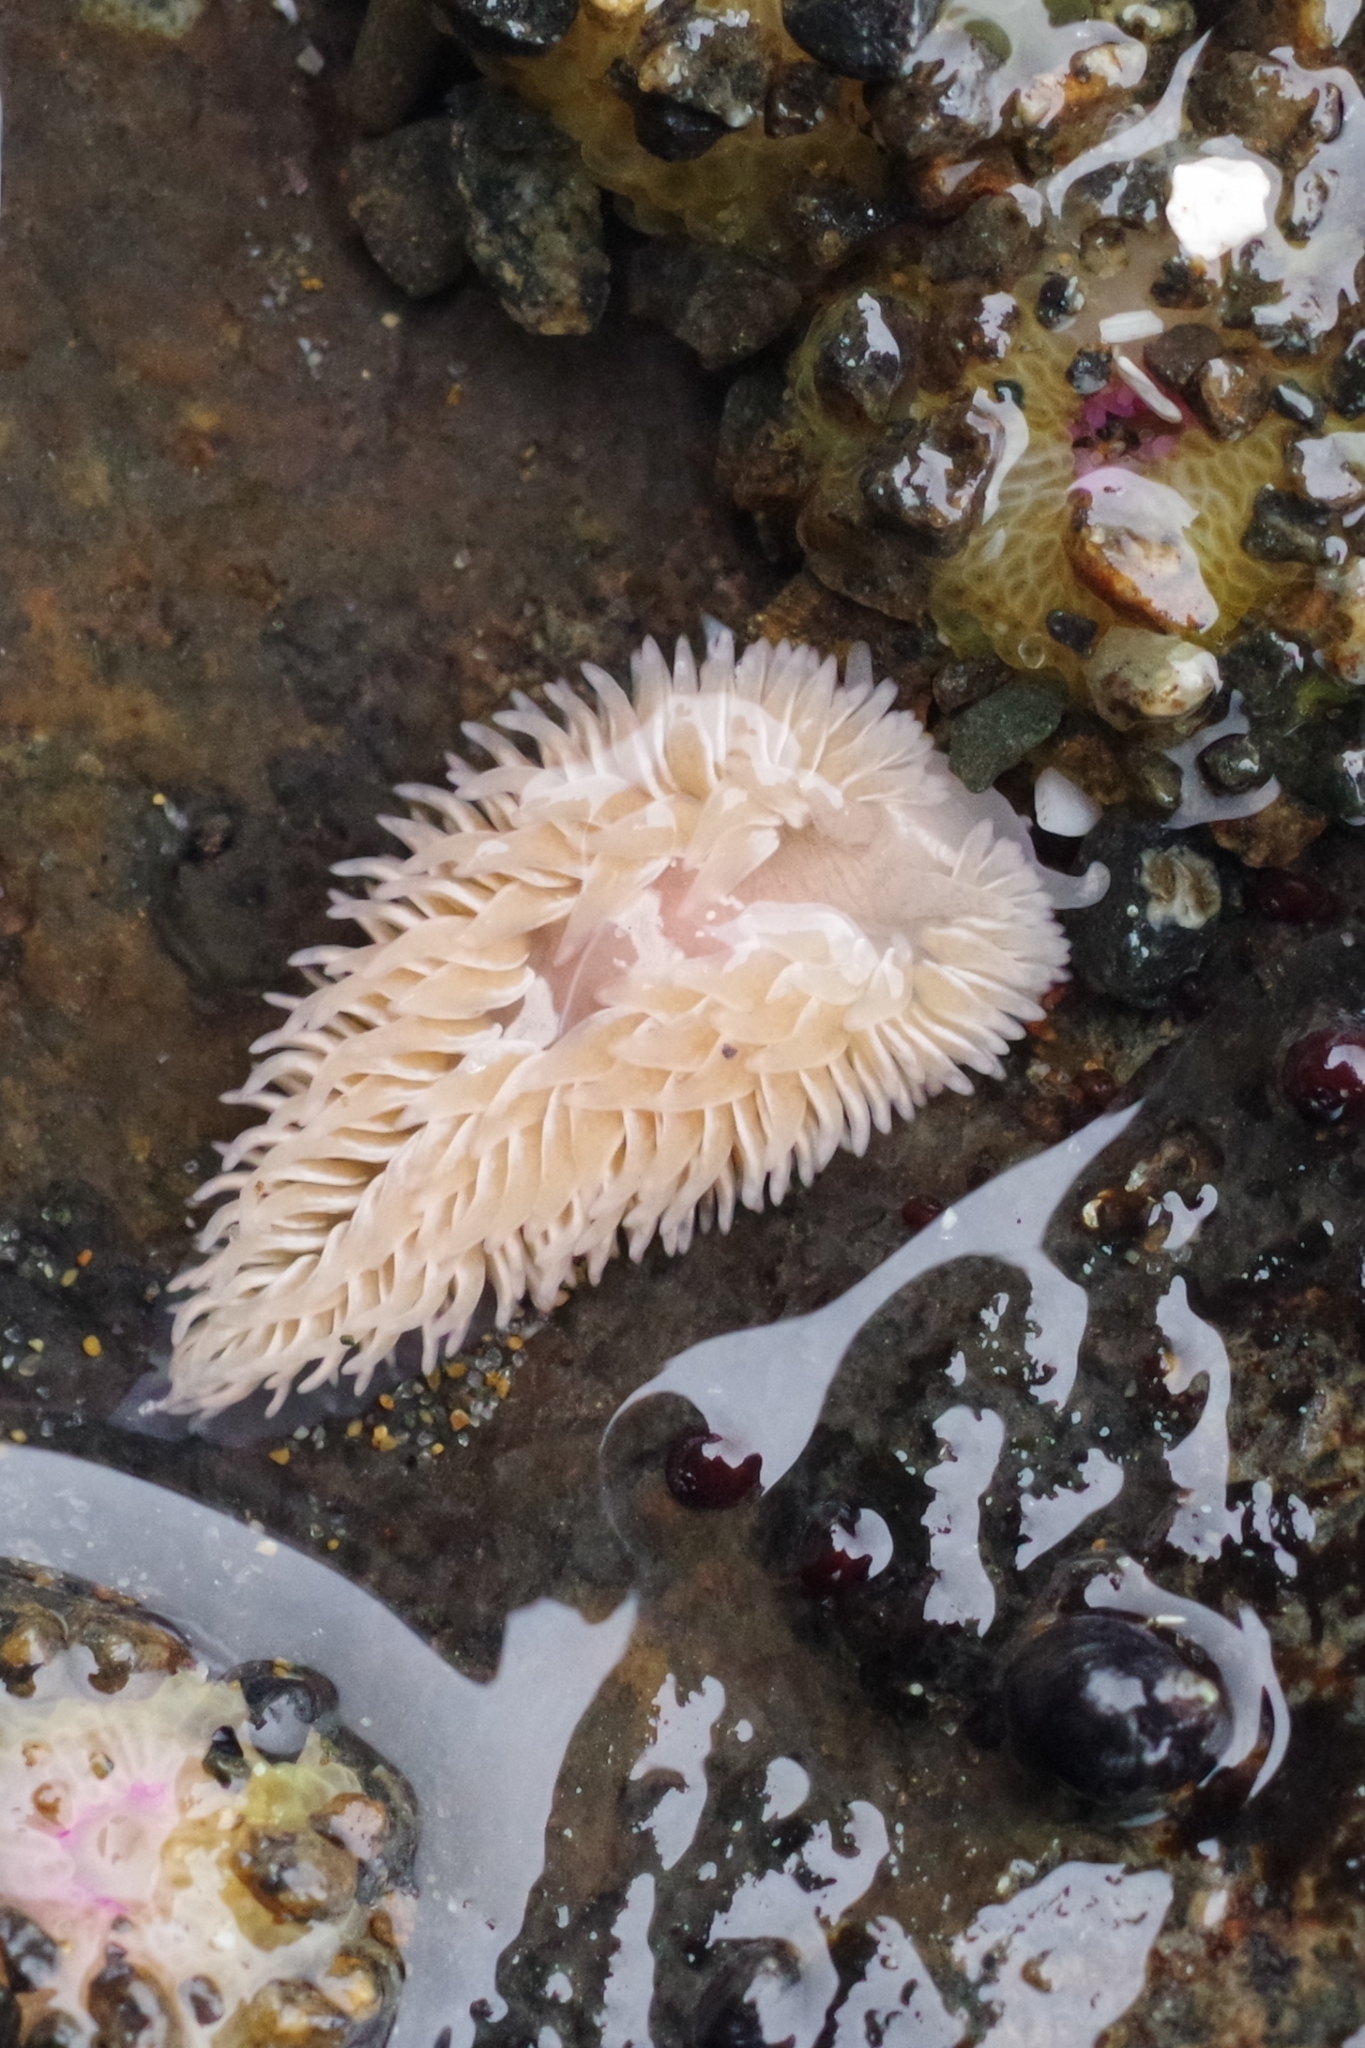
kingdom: Animalia
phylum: Mollusca
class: Gastropoda
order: Nudibranchia
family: Aeolidiidae
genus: Aeolidia
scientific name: Aeolidia loui
